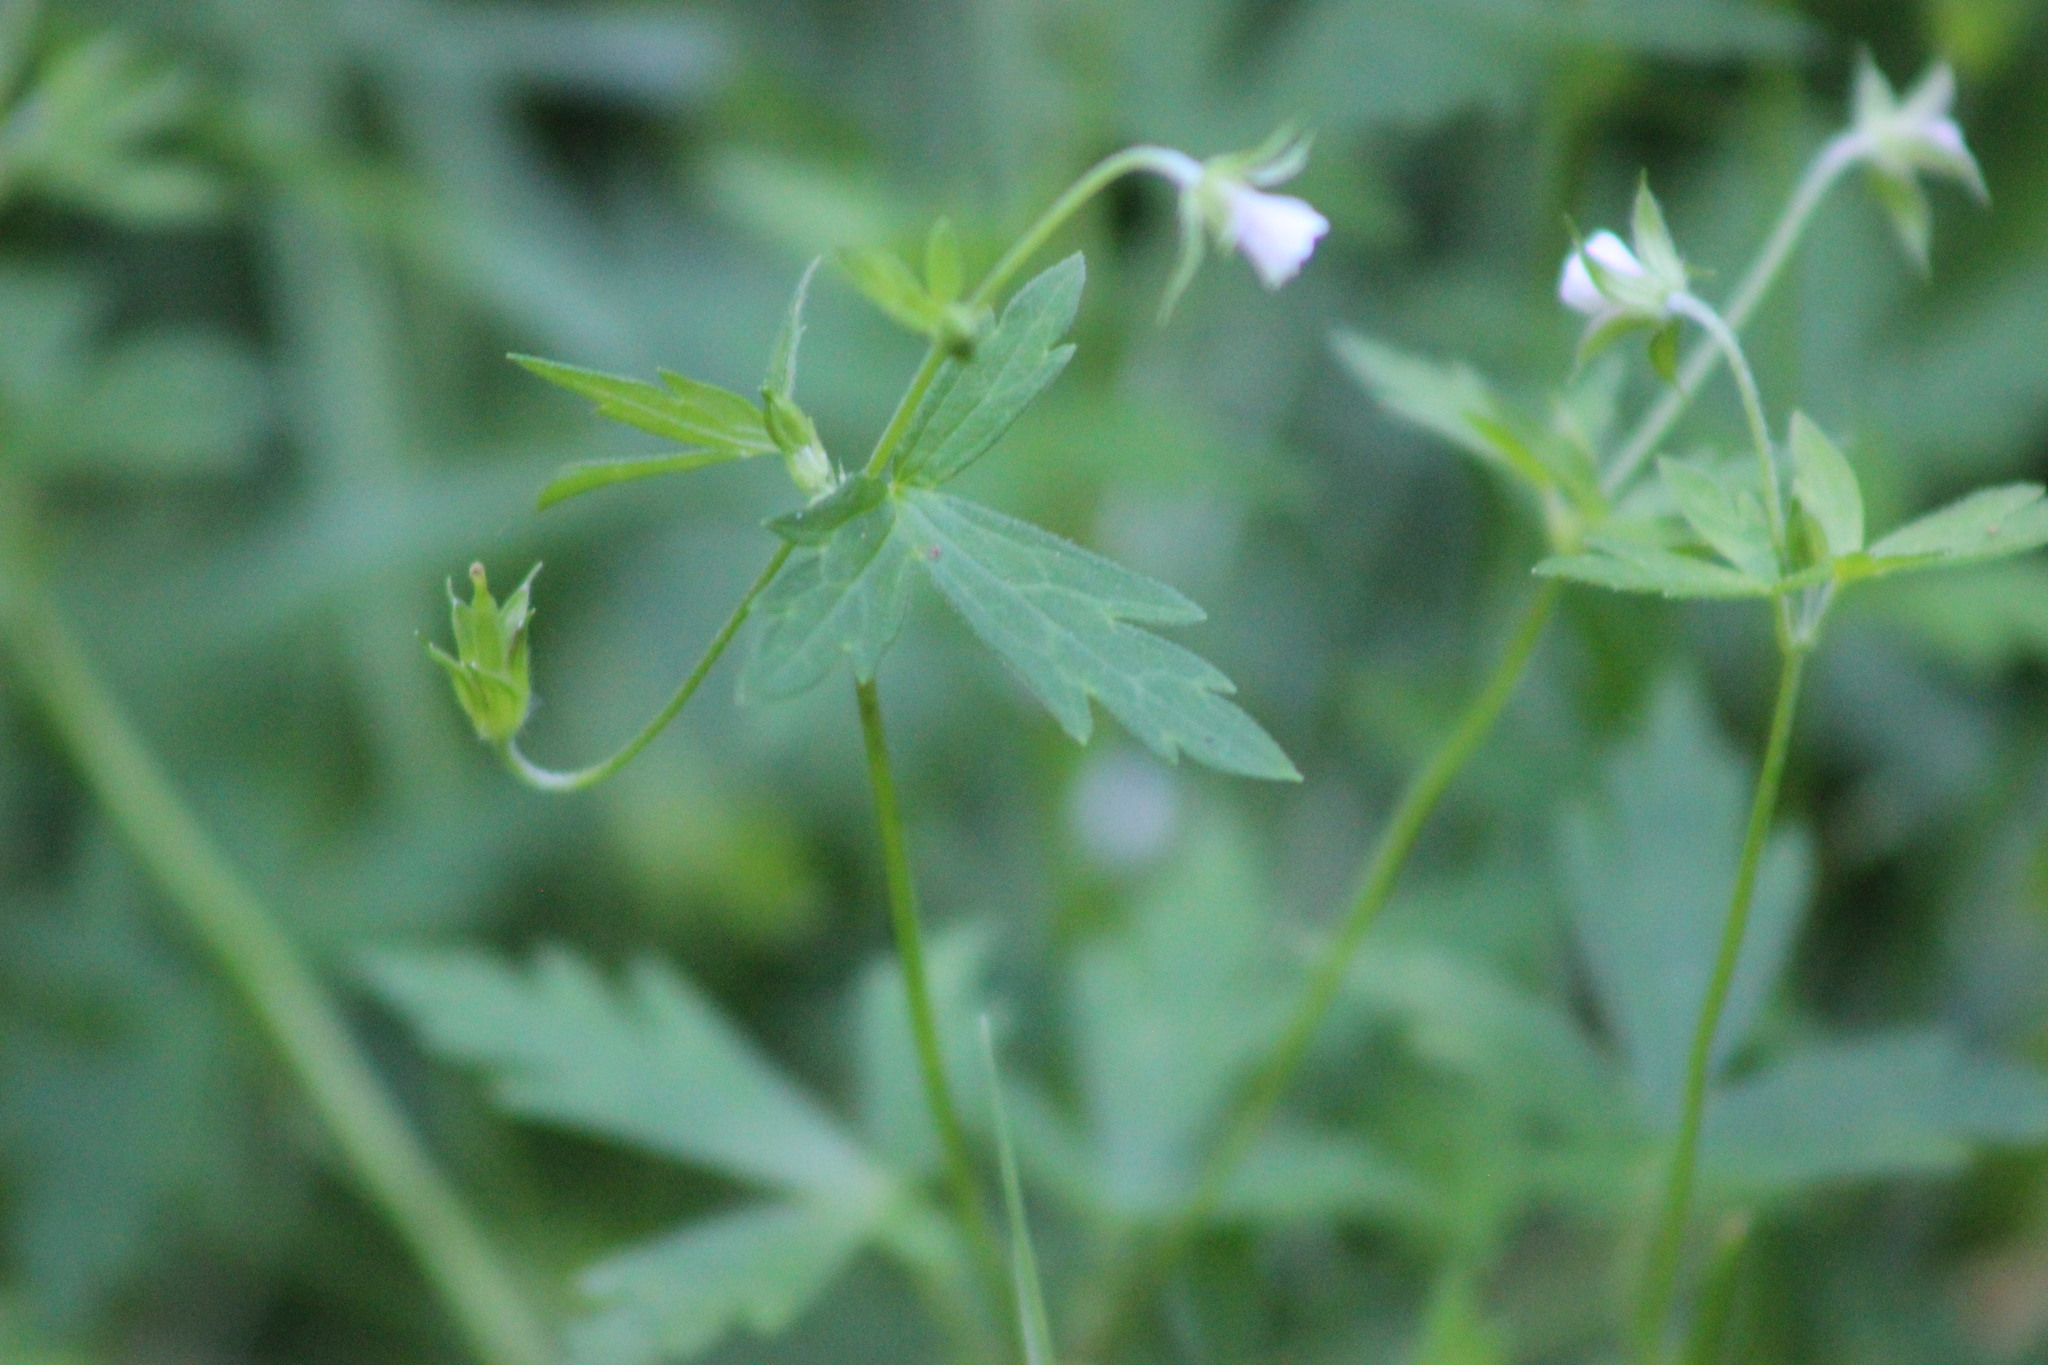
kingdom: Plantae
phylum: Tracheophyta
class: Magnoliopsida
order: Geraniales
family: Geraniaceae
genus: Geranium
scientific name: Geranium sibiricum
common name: Siberian crane's-bill
